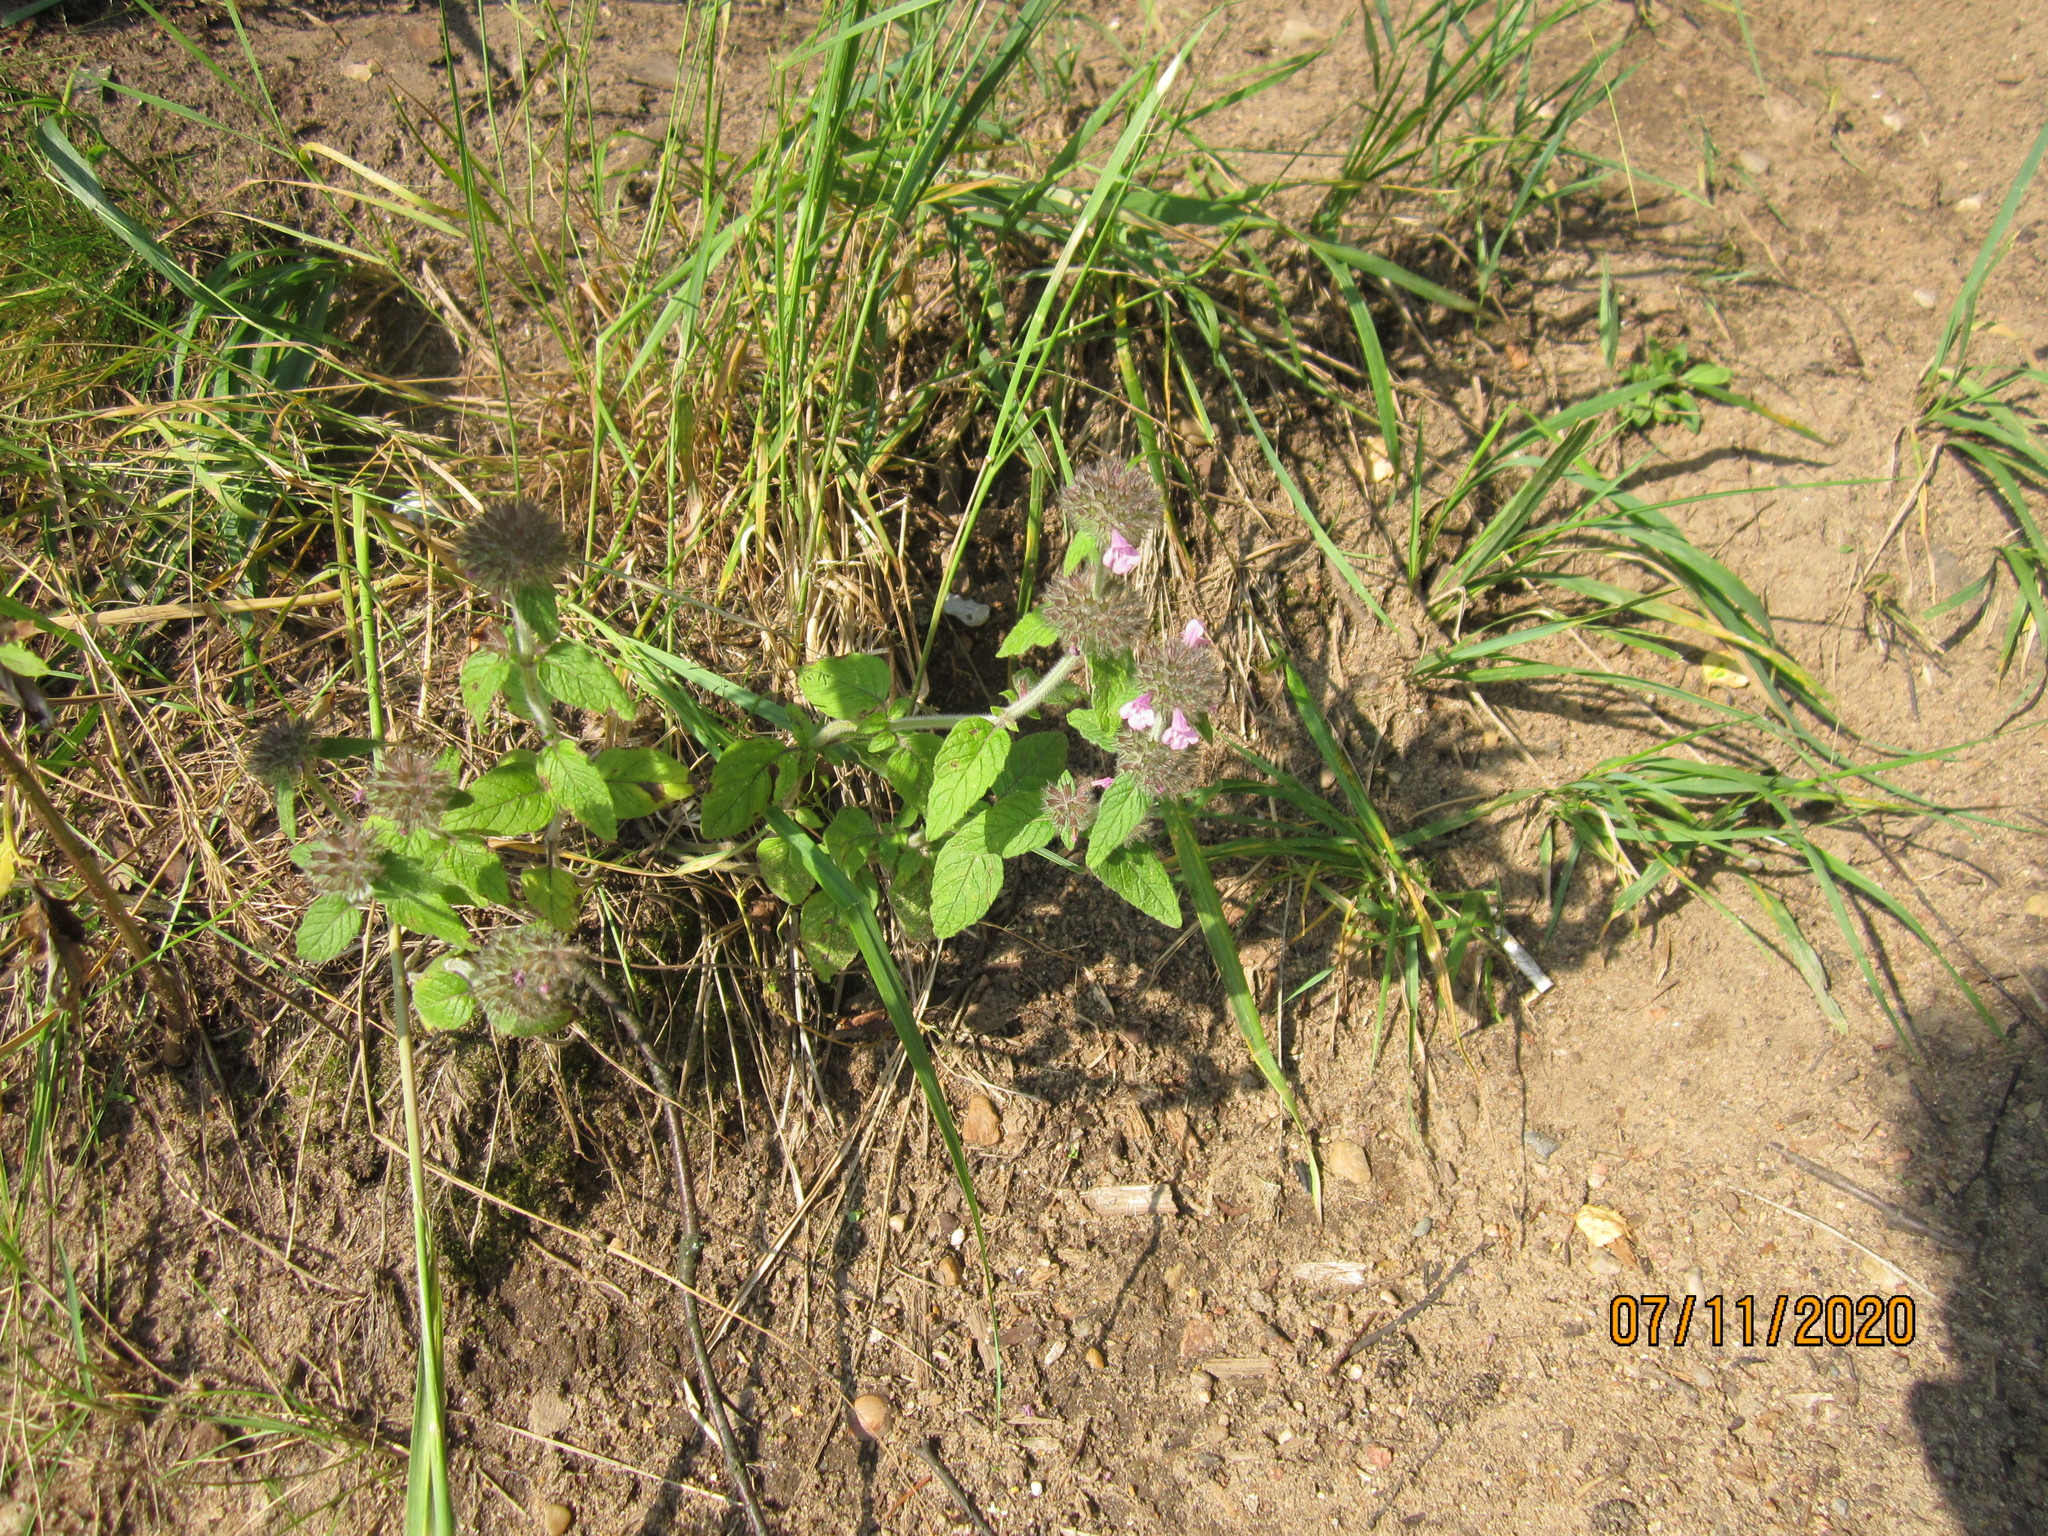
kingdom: Plantae
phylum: Tracheophyta
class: Magnoliopsida
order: Lamiales
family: Lamiaceae
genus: Clinopodium
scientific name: Clinopodium vulgare
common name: Wild basil
